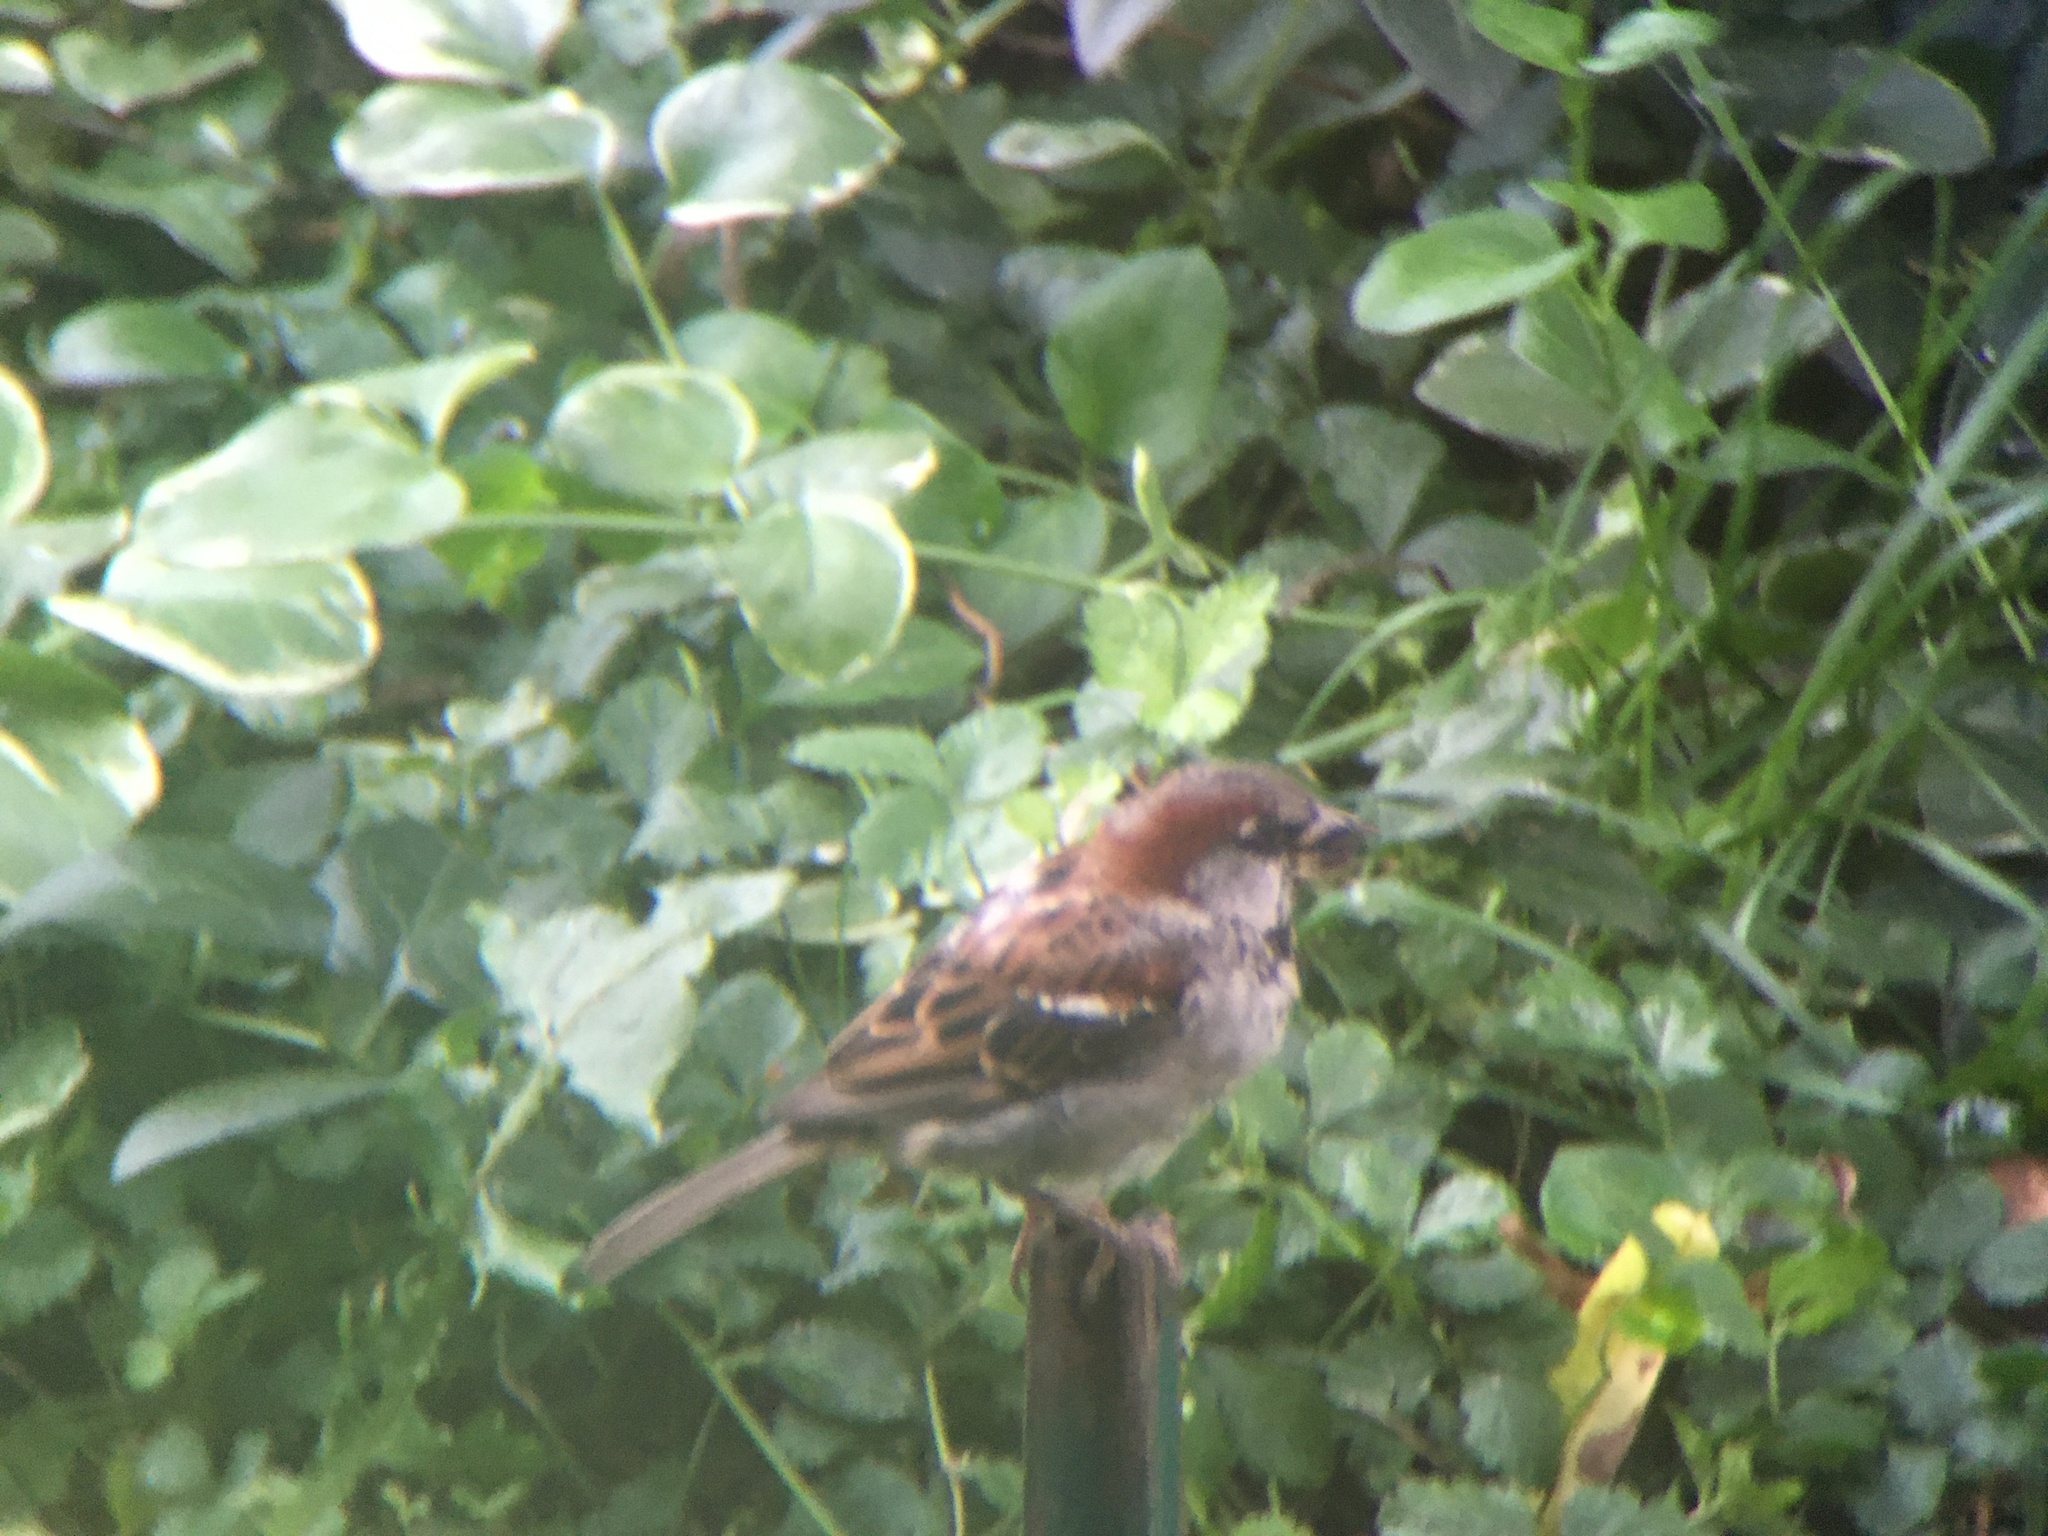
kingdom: Animalia
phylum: Chordata
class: Aves
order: Passeriformes
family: Passeridae
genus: Passer
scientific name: Passer domesticus
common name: House sparrow
